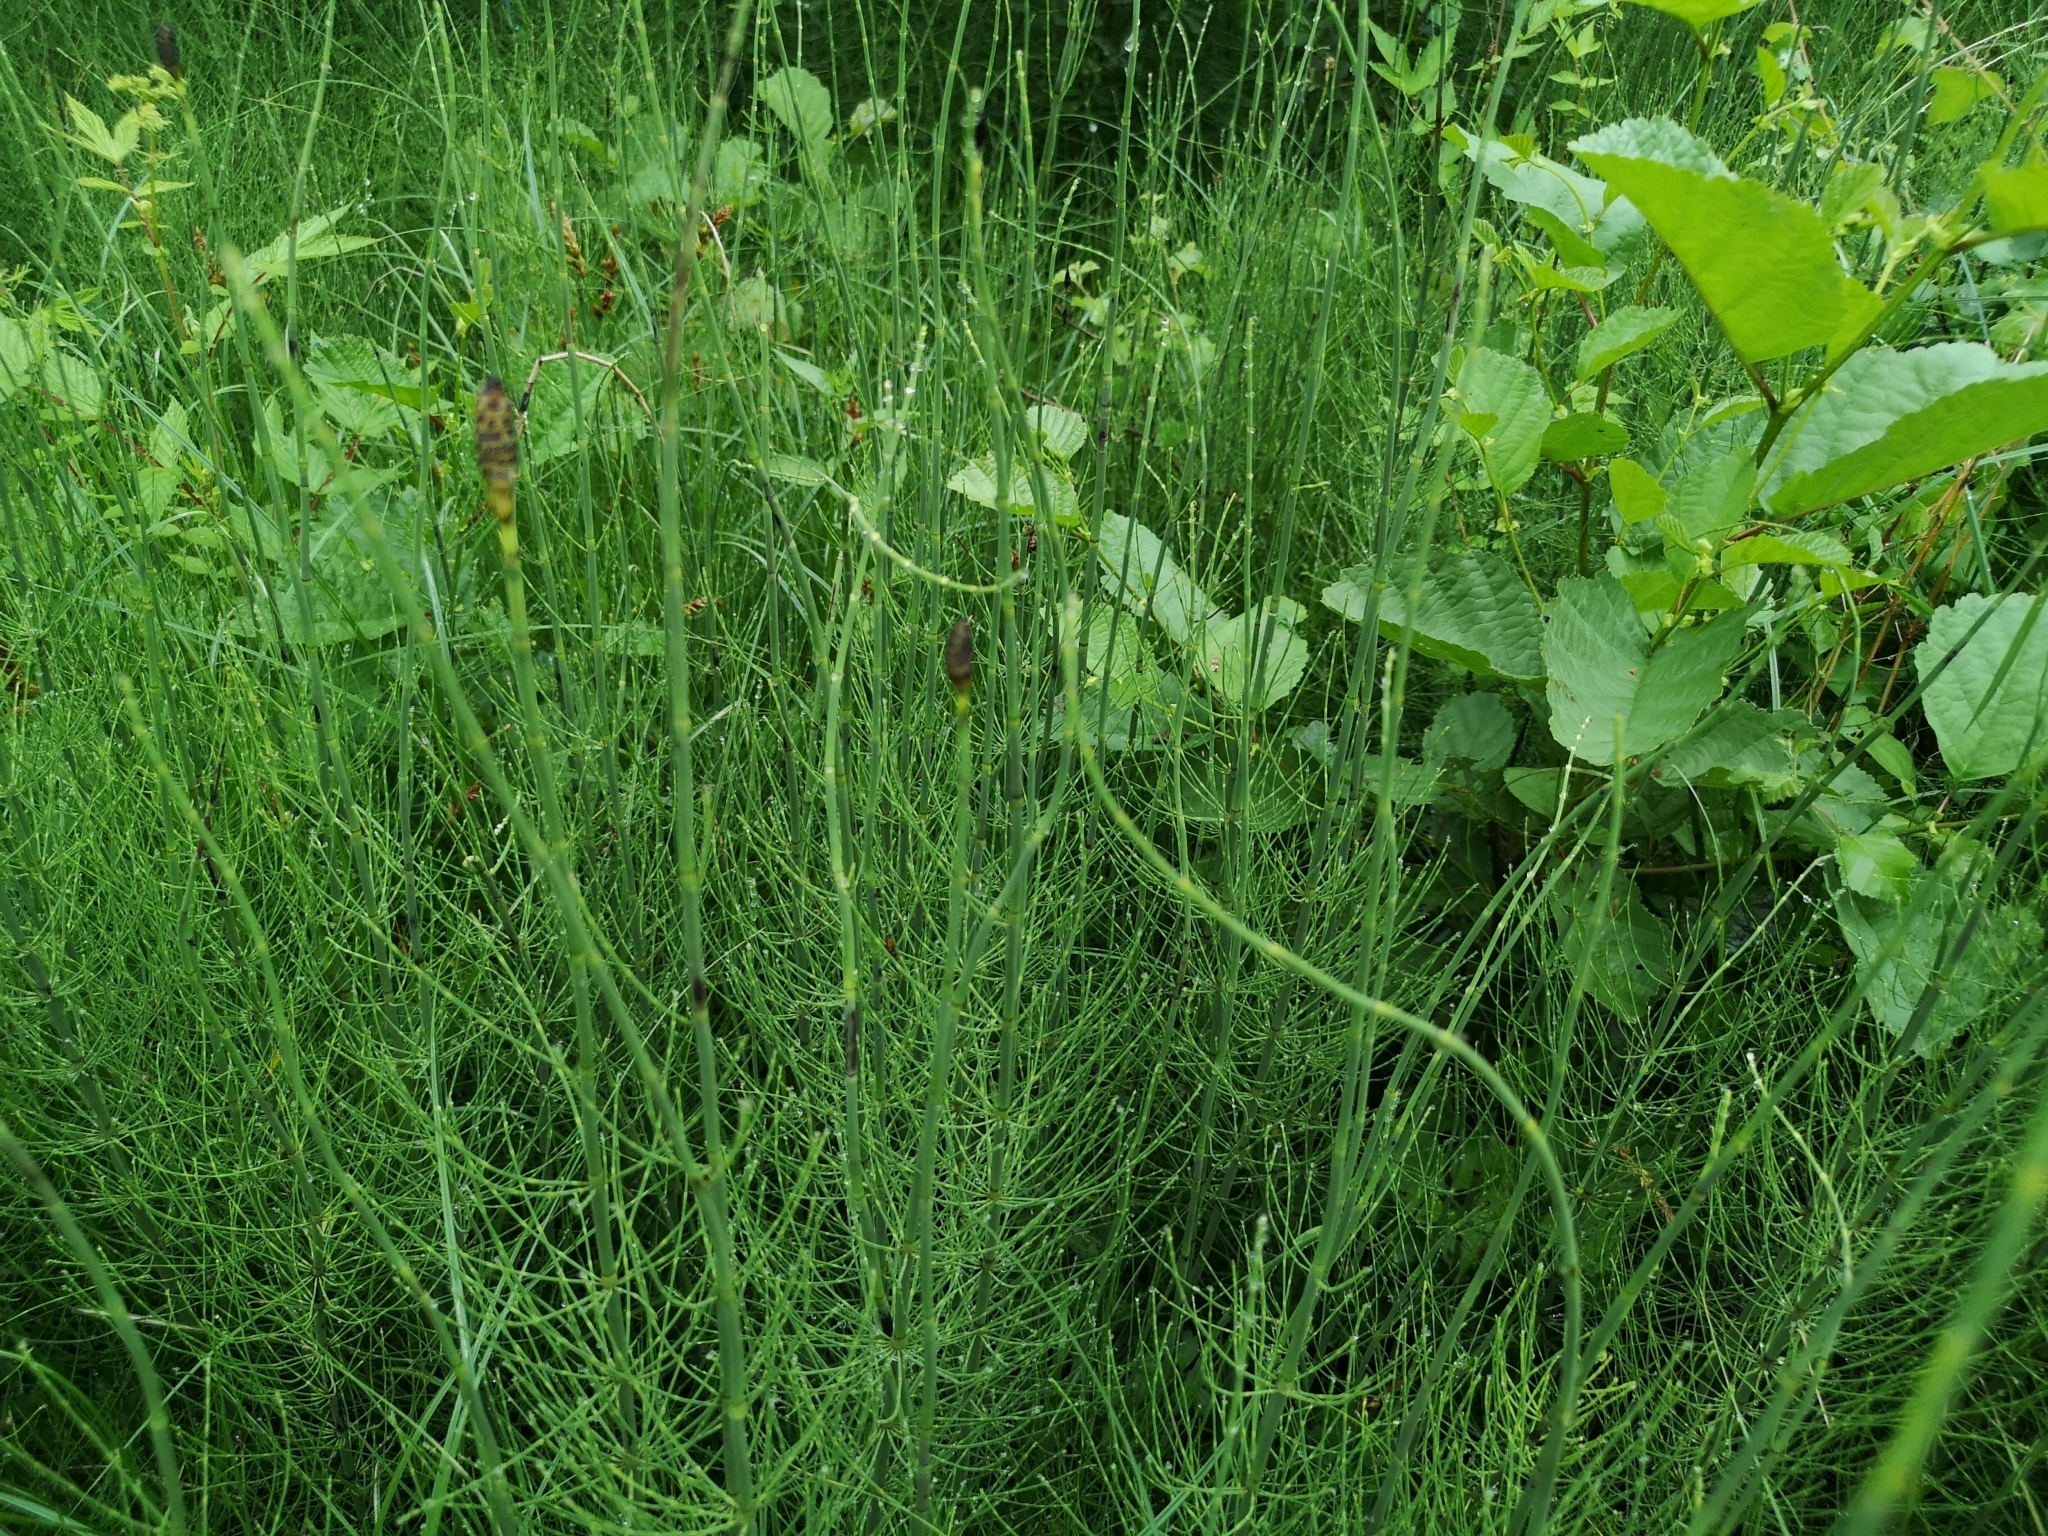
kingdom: Plantae
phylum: Tracheophyta
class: Polypodiopsida
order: Equisetales
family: Equisetaceae
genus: Equisetum
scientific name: Equisetum fluviatile
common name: Water horsetail
